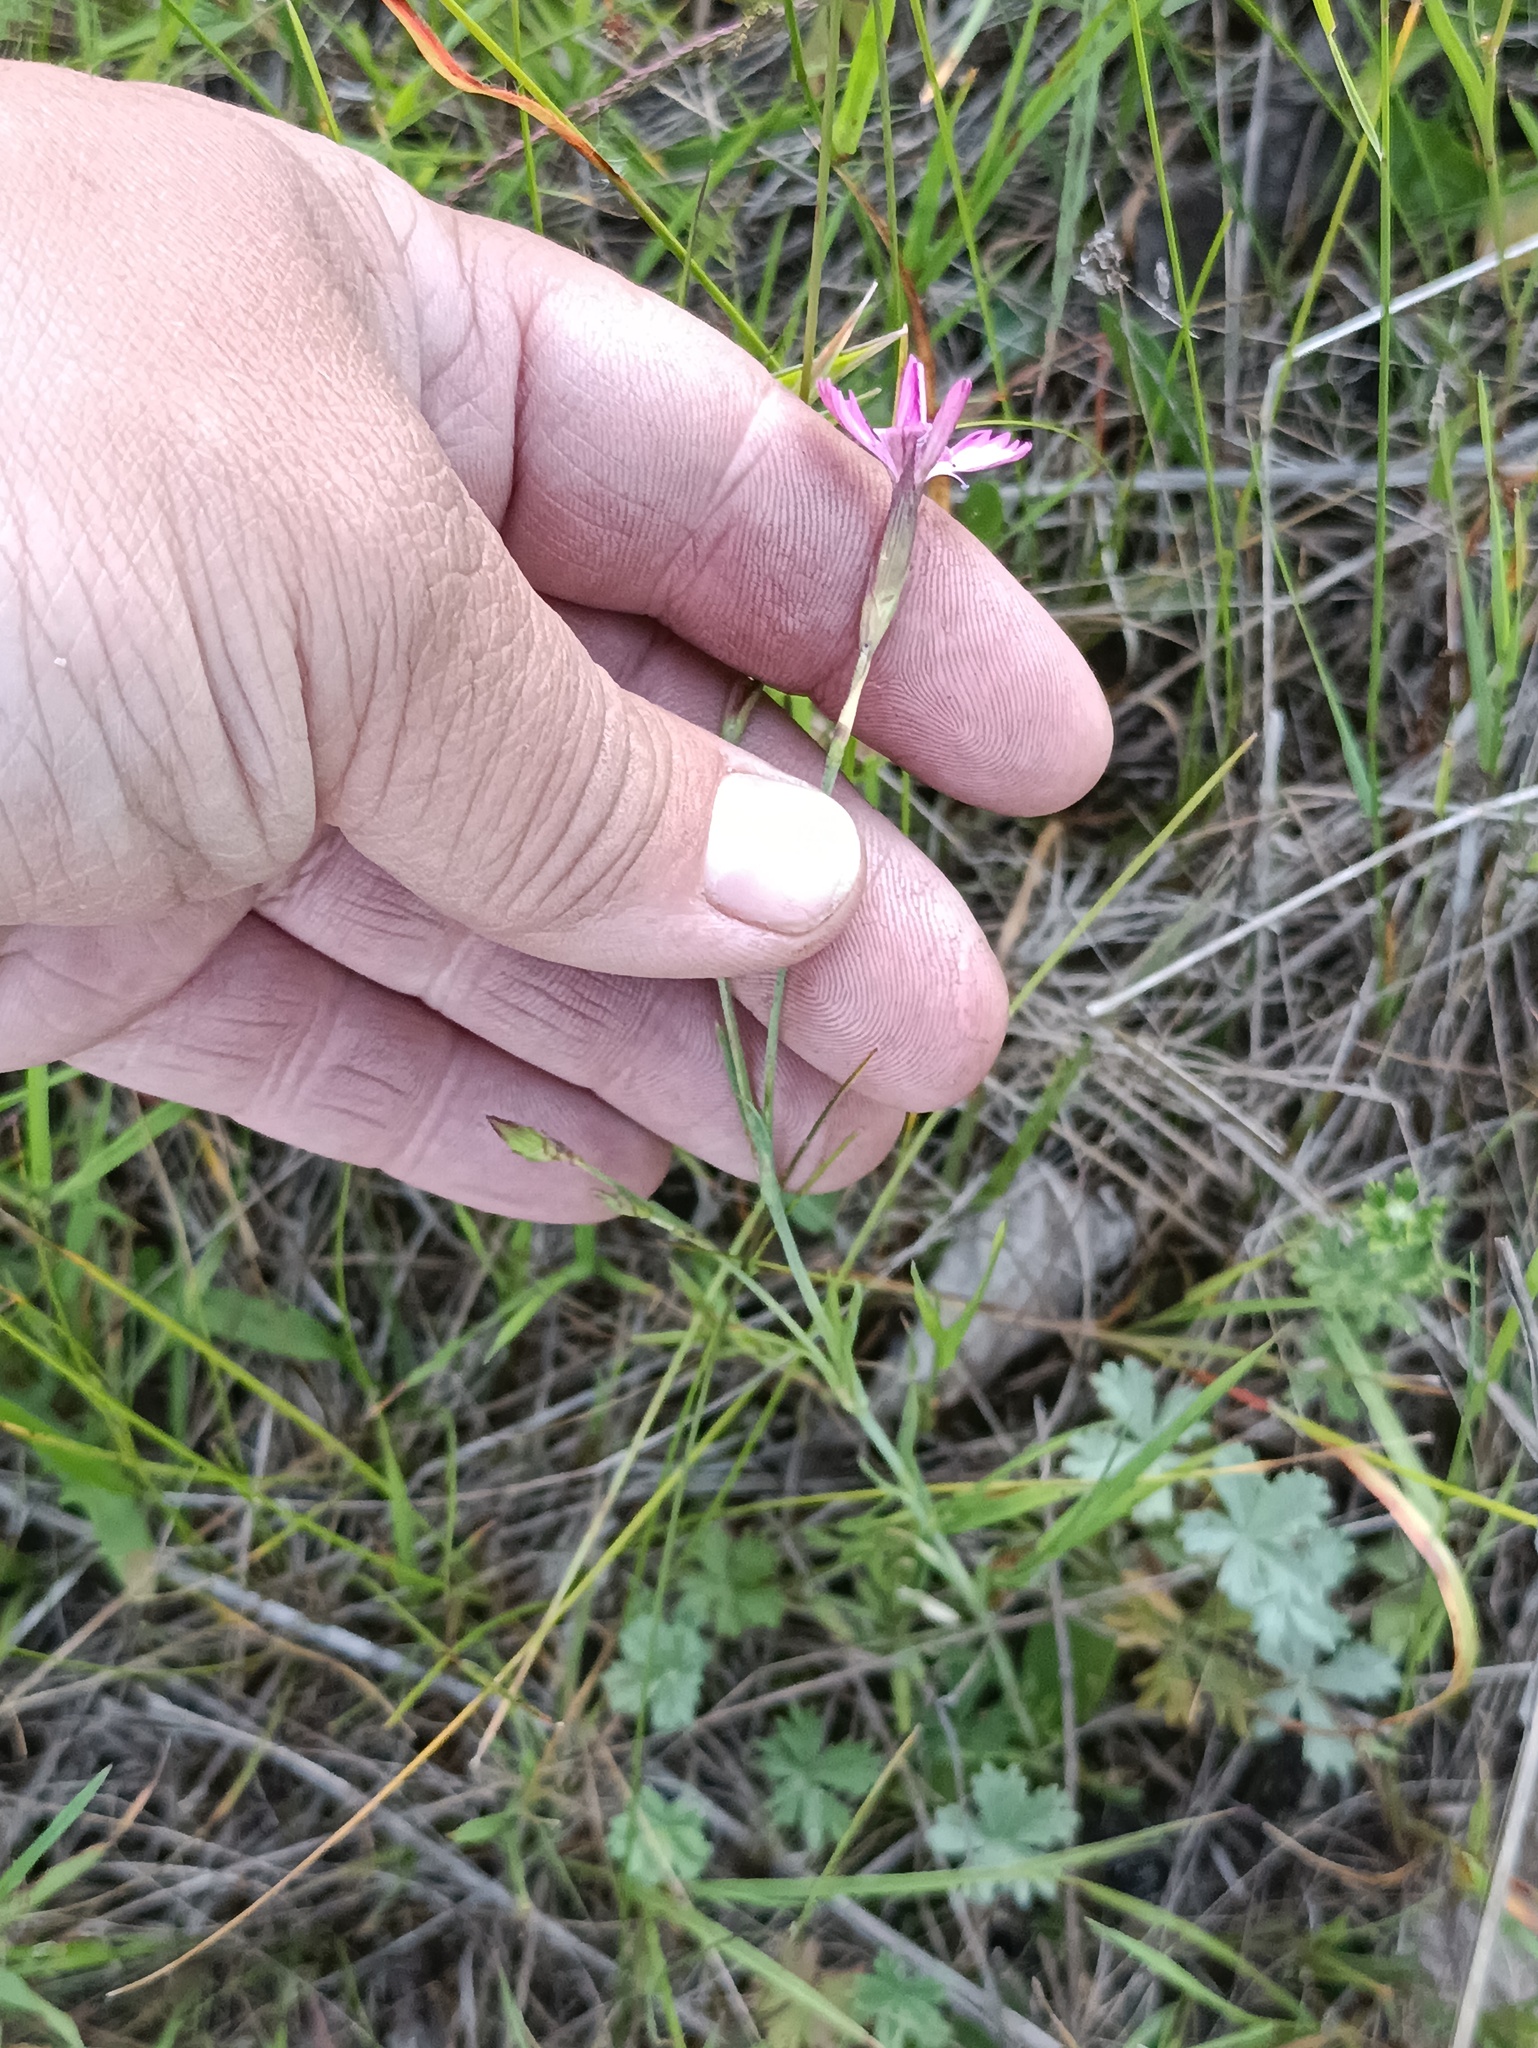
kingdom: Plantae
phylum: Tracheophyta
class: Magnoliopsida
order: Caryophyllales
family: Caryophyllaceae
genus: Dianthus
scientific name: Dianthus deltoides
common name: Maiden pink
